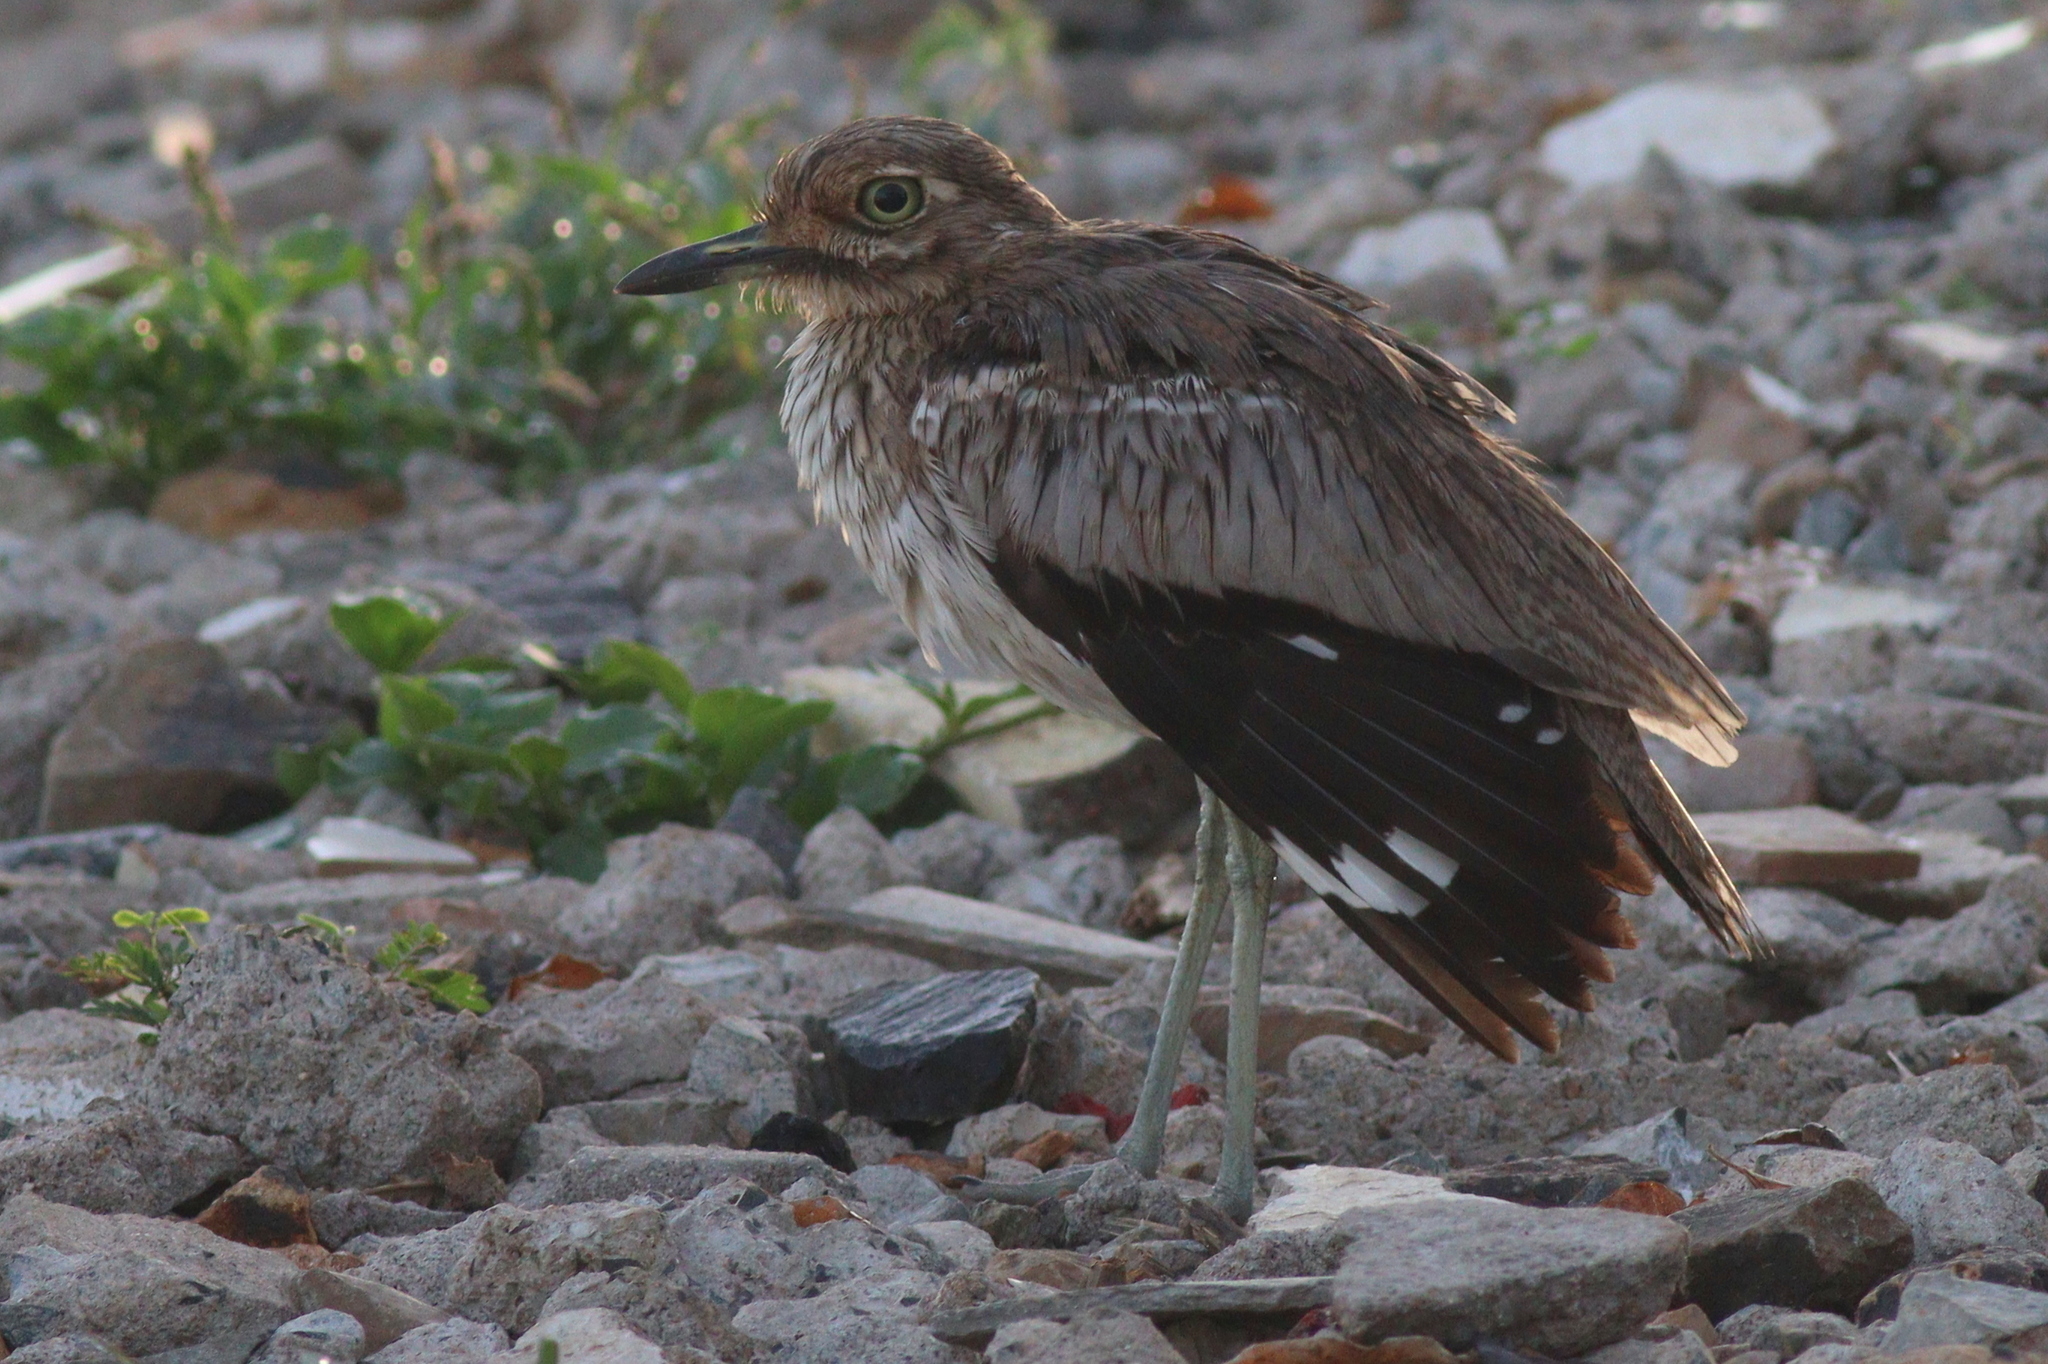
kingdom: Animalia
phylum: Chordata
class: Aves
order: Charadriiformes
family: Burhinidae
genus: Burhinus
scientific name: Burhinus vermiculatus
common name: Water thick-knee
